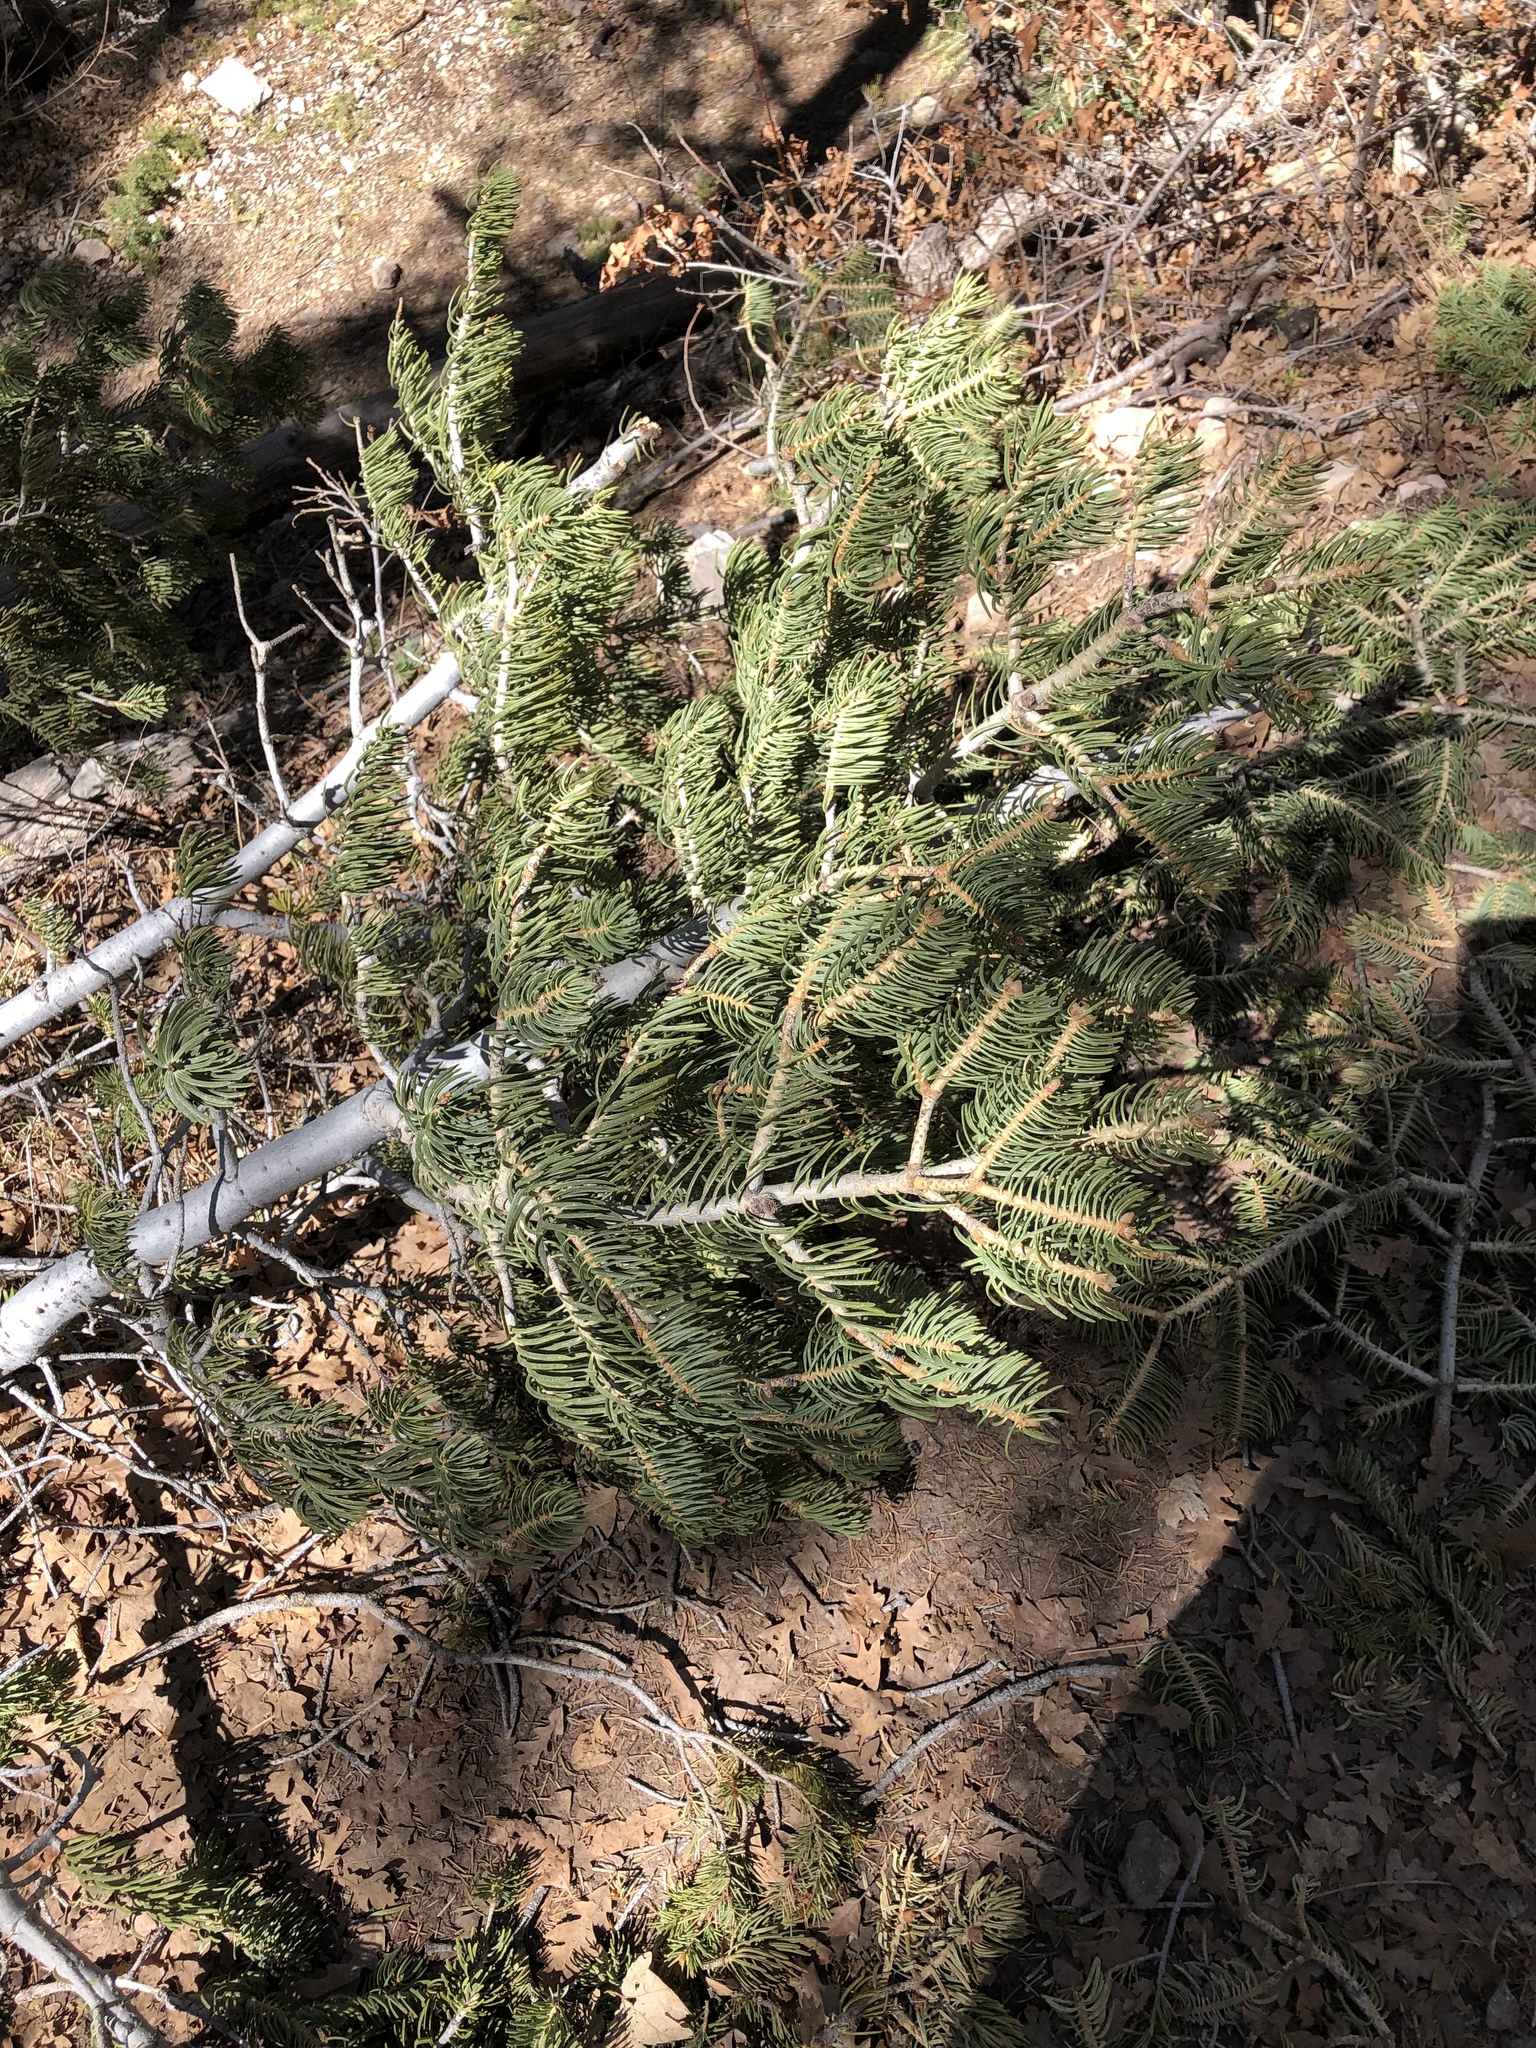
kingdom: Plantae
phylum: Tracheophyta
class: Pinopsida
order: Pinales
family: Pinaceae
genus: Abies
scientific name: Abies concolor
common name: Colorado fir
